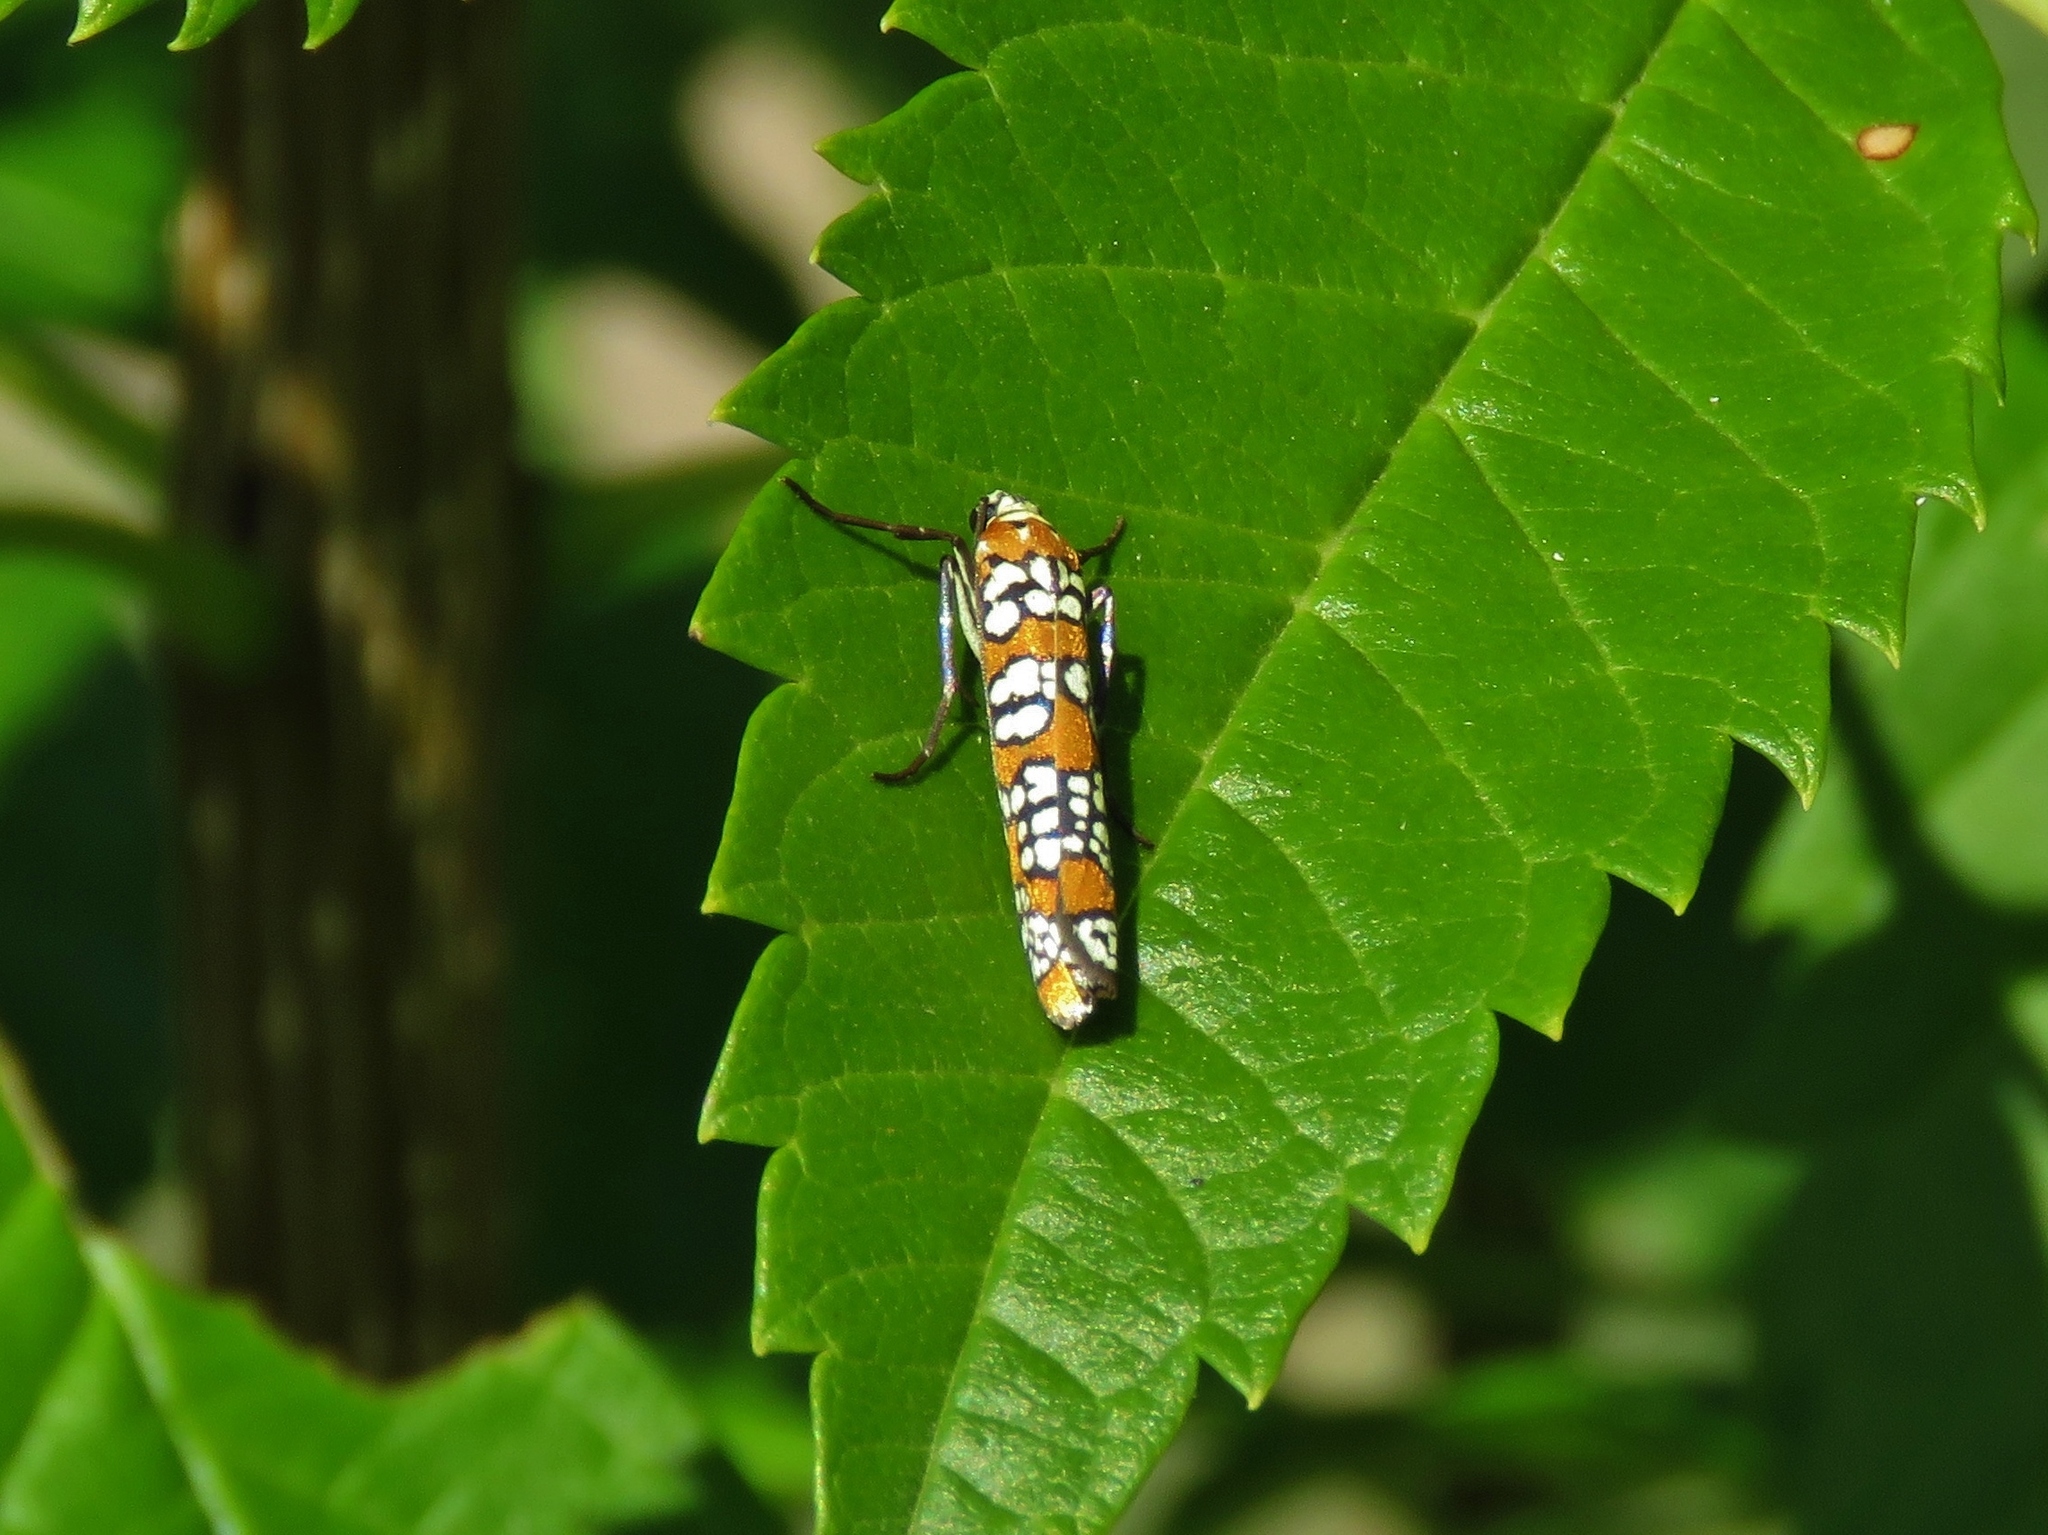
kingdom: Animalia
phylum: Arthropoda
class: Insecta
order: Lepidoptera
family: Attevidae
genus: Atteva
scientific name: Atteva punctella
